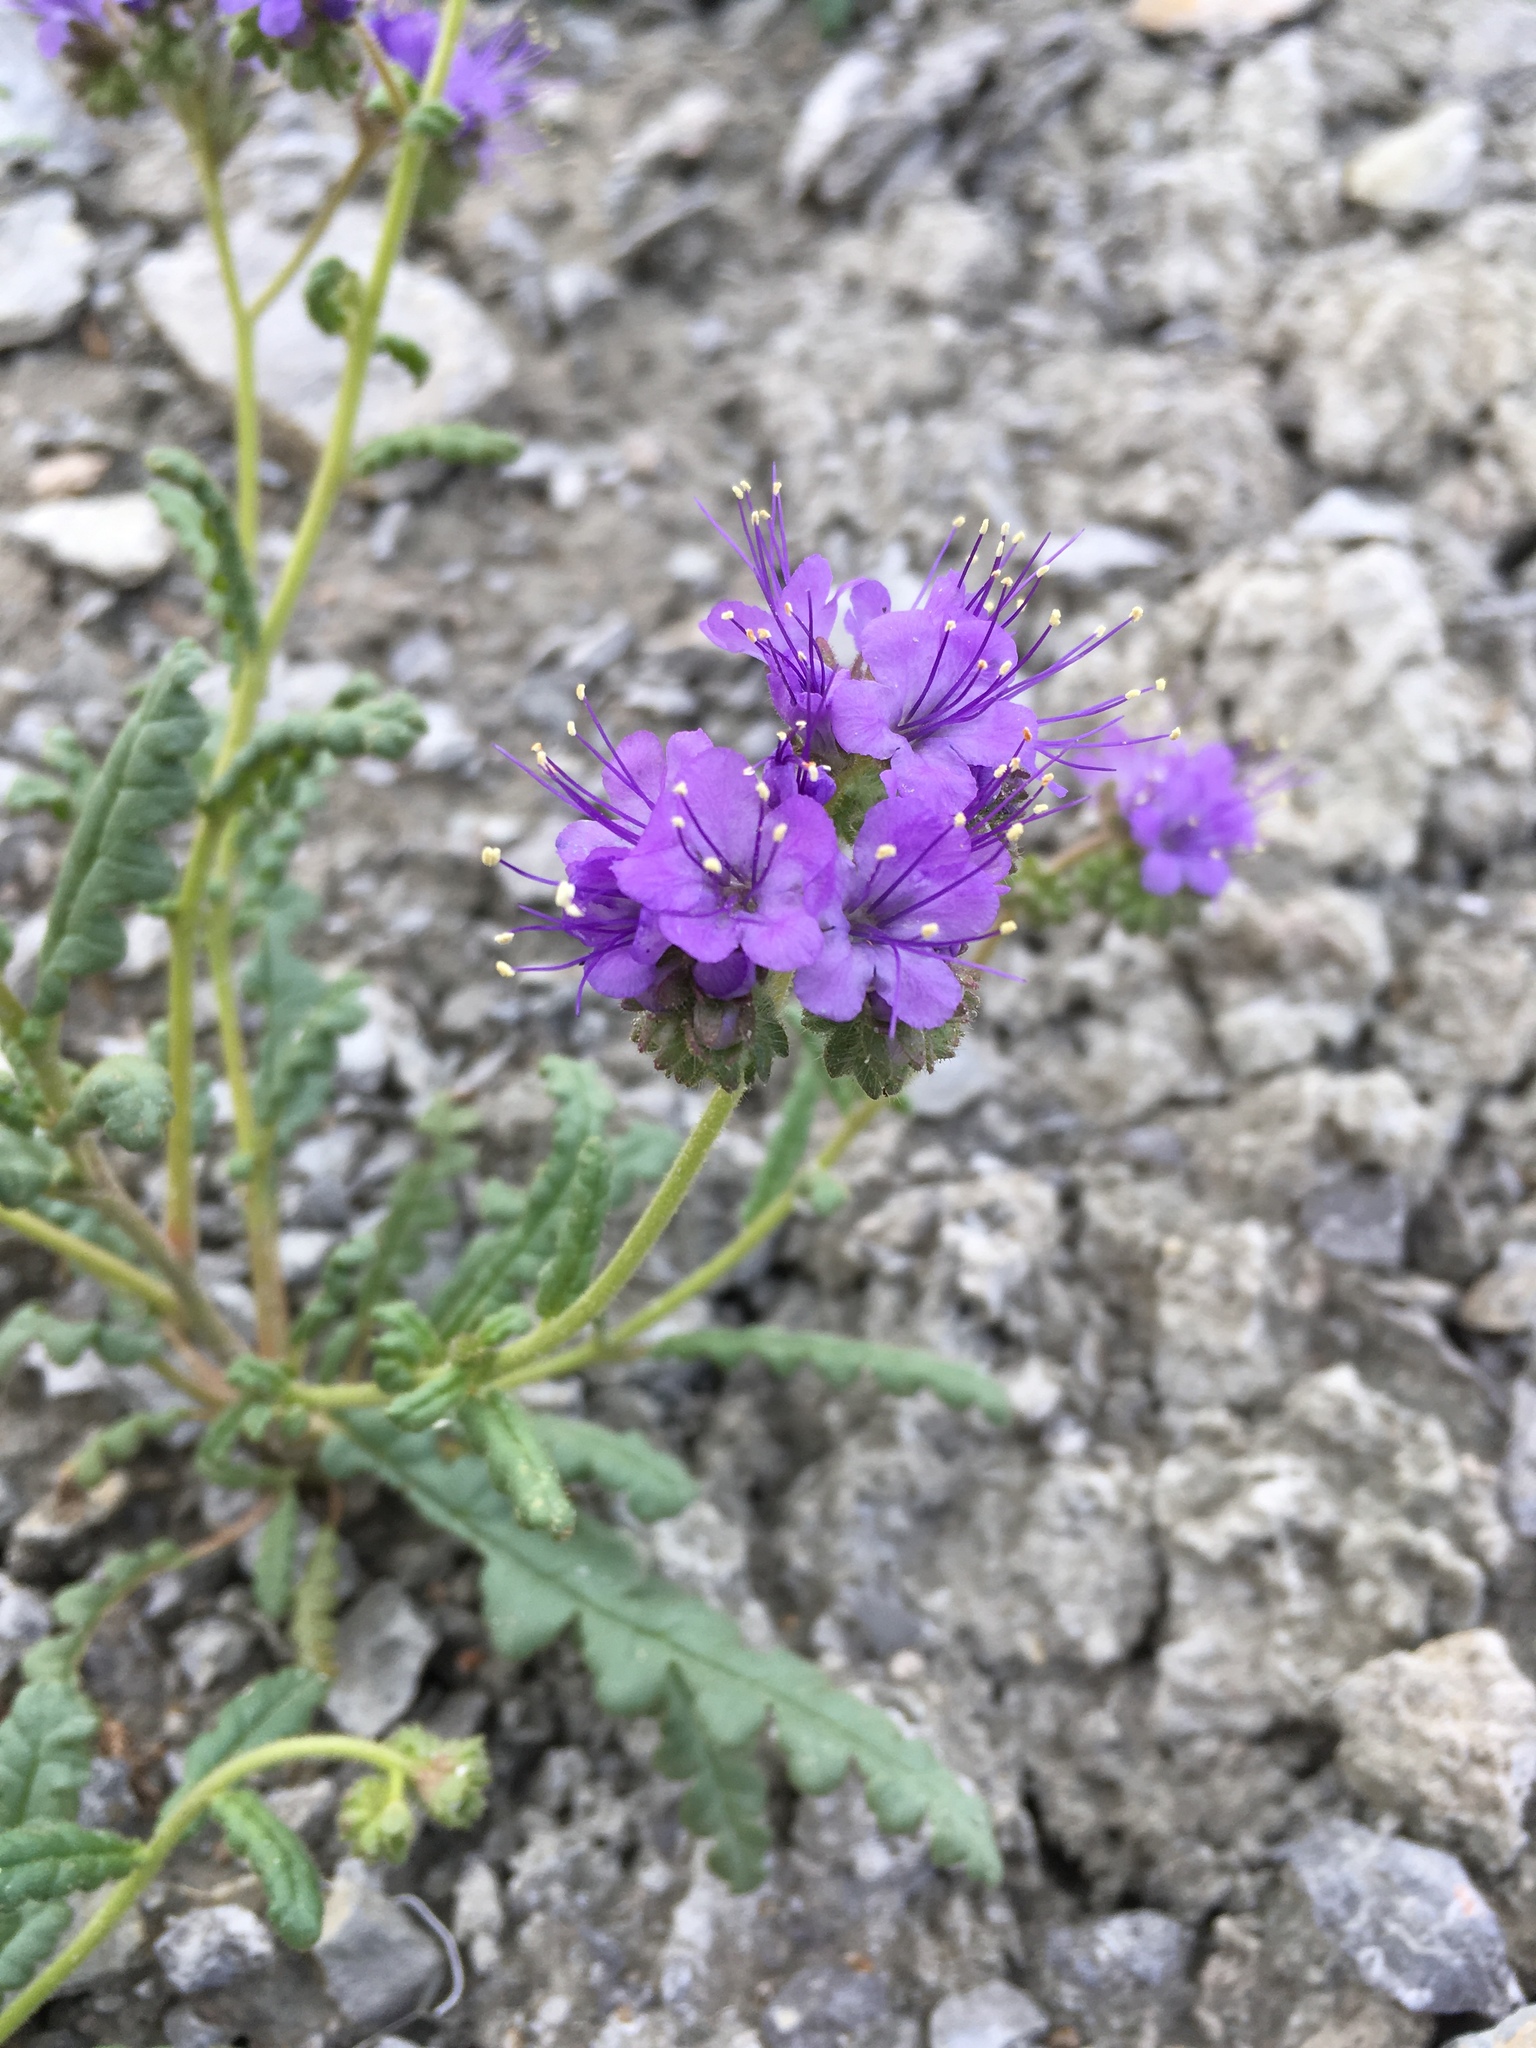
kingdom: Plantae
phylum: Tracheophyta
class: Magnoliopsida
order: Boraginales
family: Hydrophyllaceae
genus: Phacelia
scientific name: Phacelia corrugata
